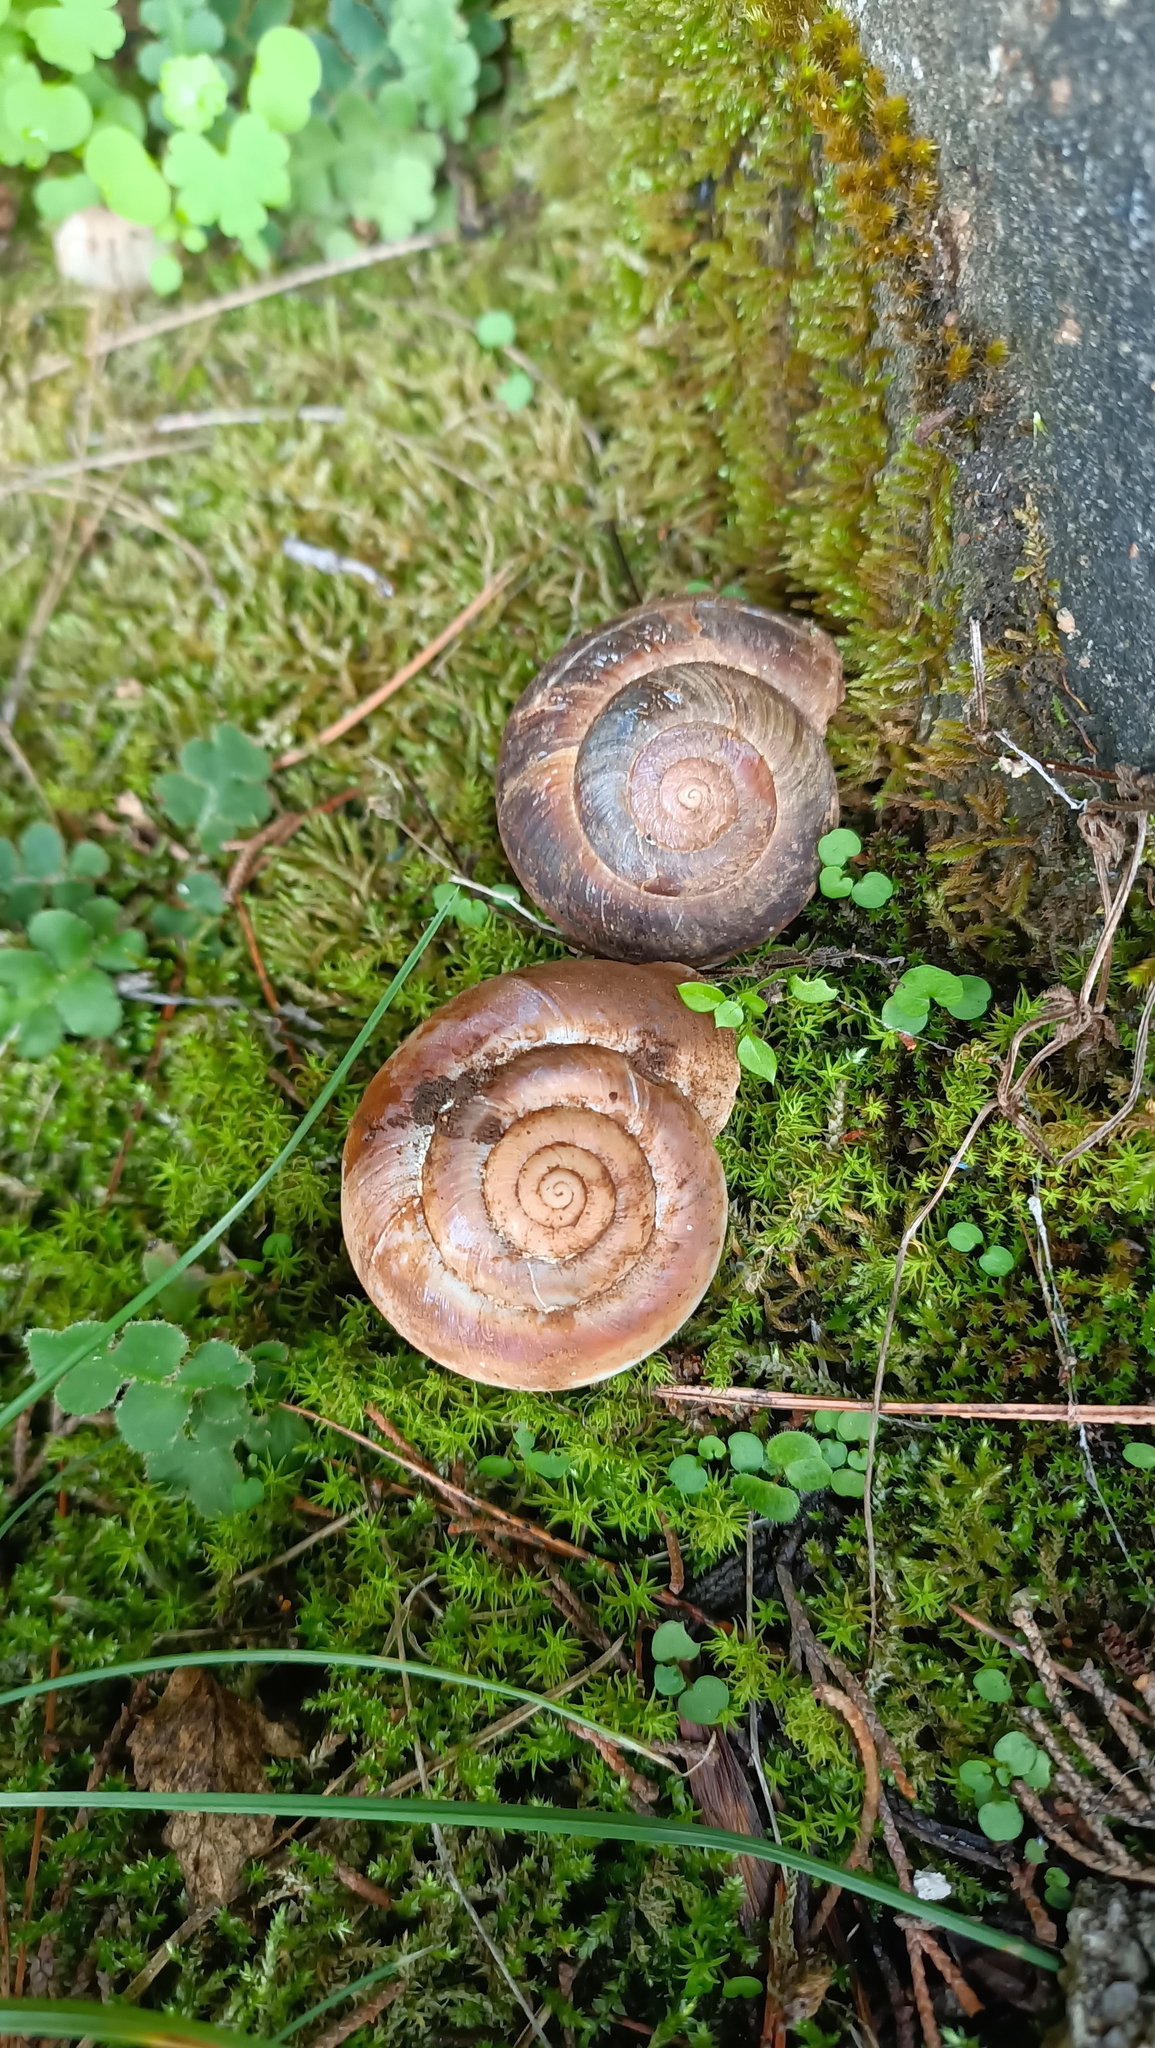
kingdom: Animalia
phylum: Mollusca
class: Gastropoda
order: Stylommatophora
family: Helicidae
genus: Dinarica
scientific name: Dinarica pouzolzii
